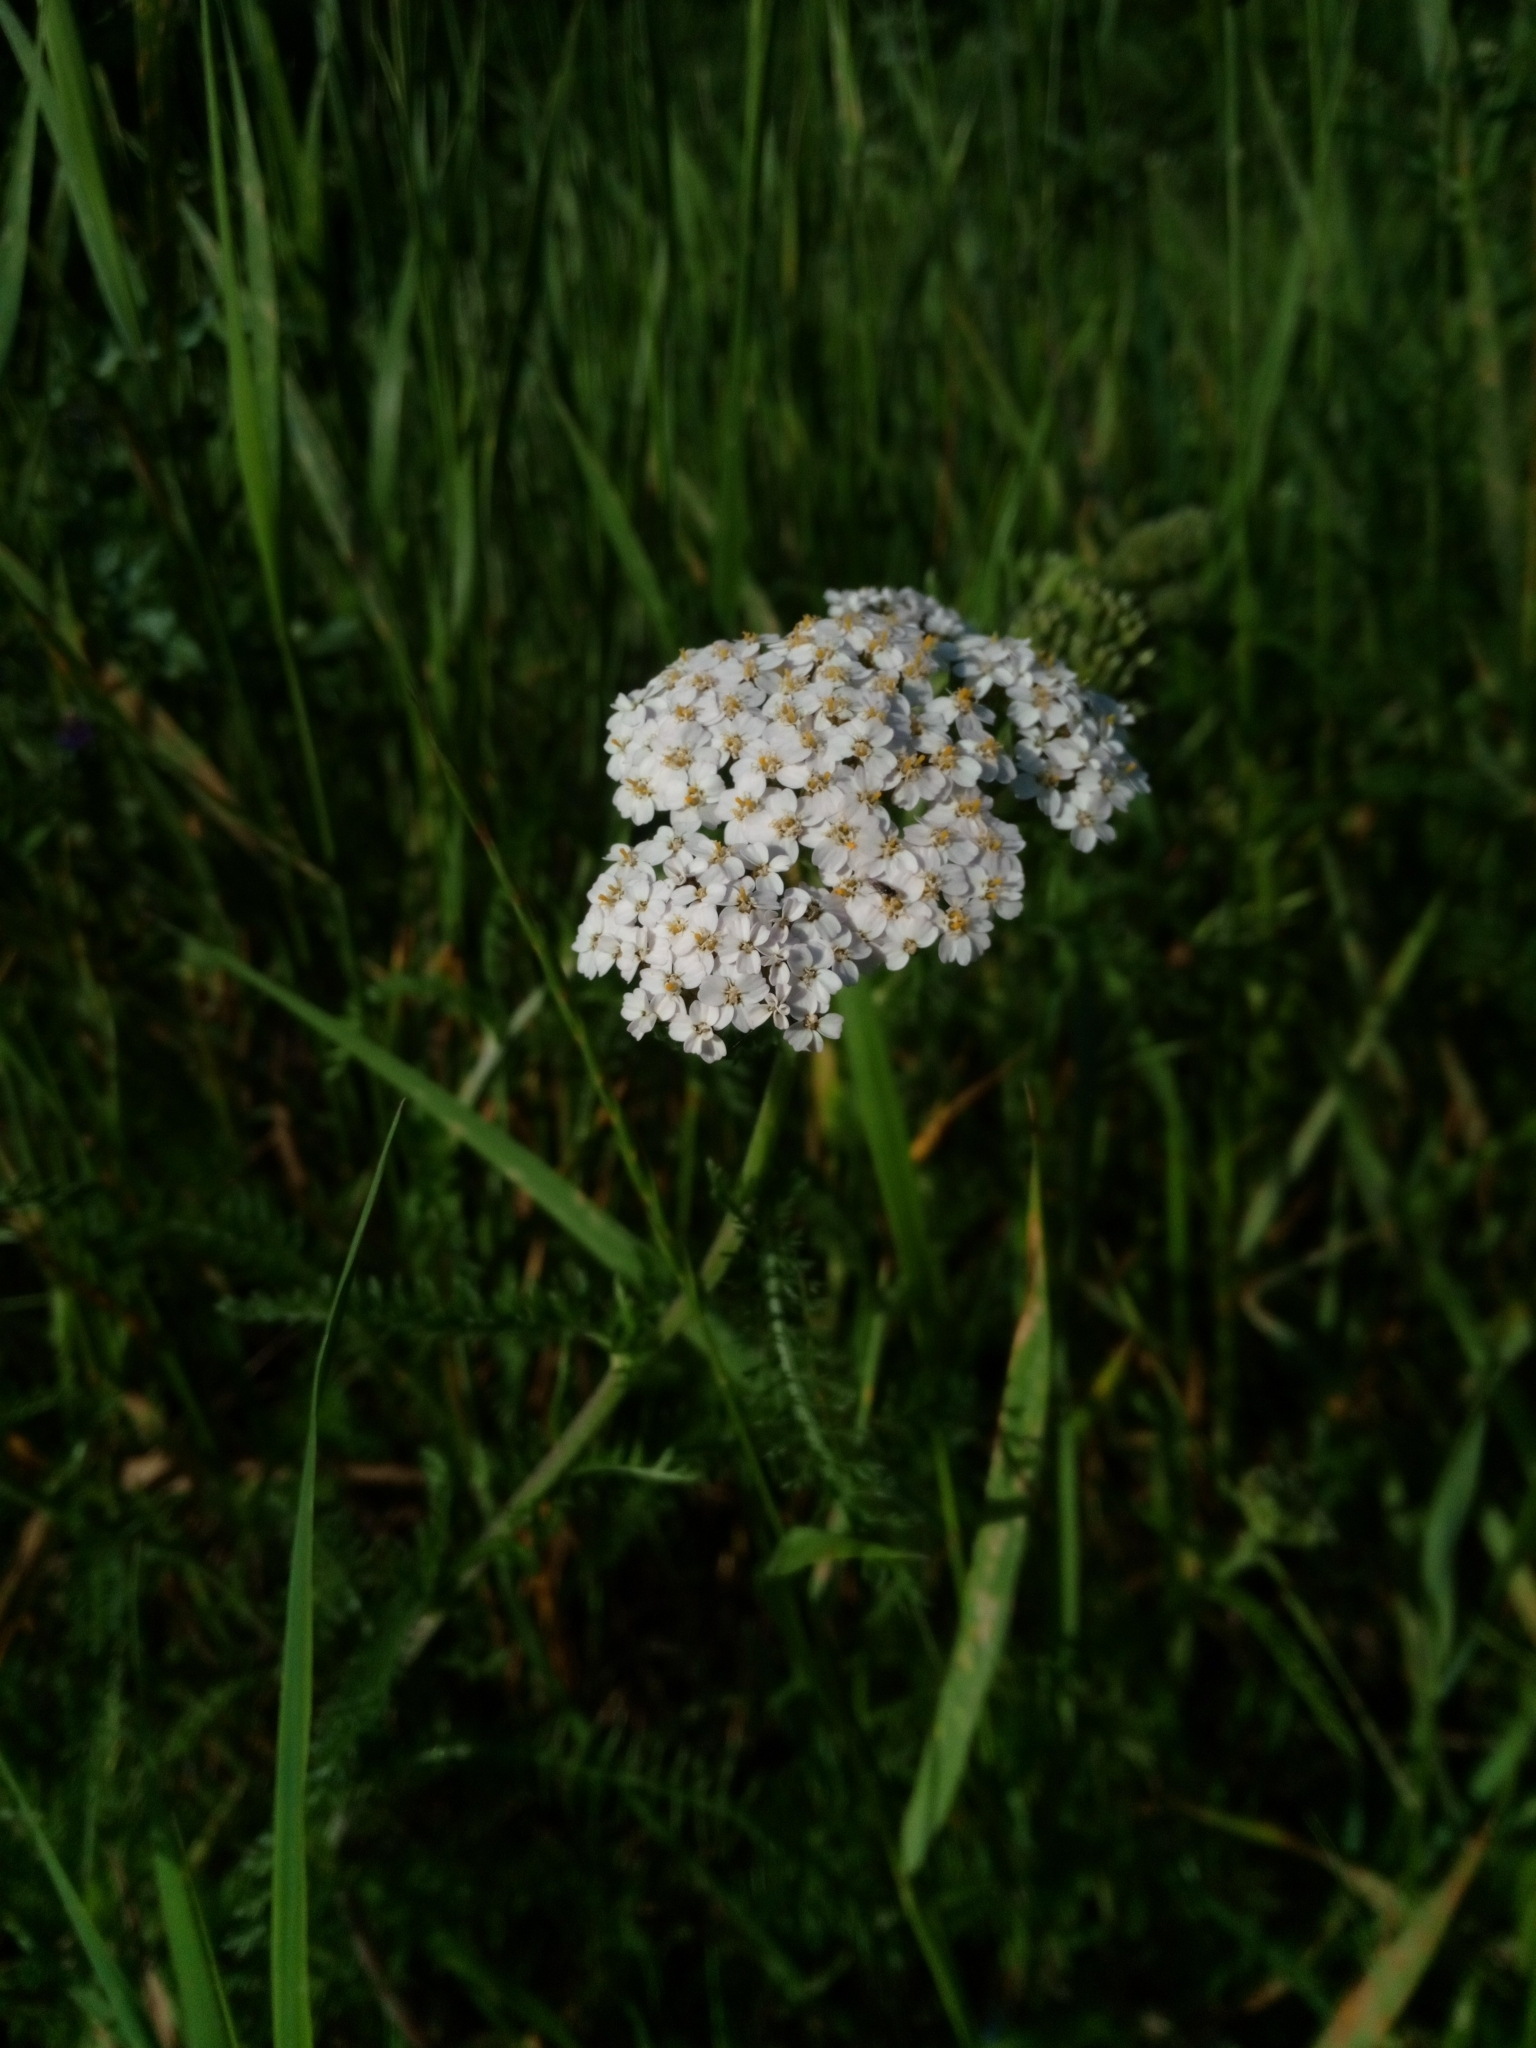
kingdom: Plantae
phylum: Tracheophyta
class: Magnoliopsida
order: Asterales
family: Asteraceae
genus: Achillea
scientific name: Achillea millefolium
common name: Yarrow
